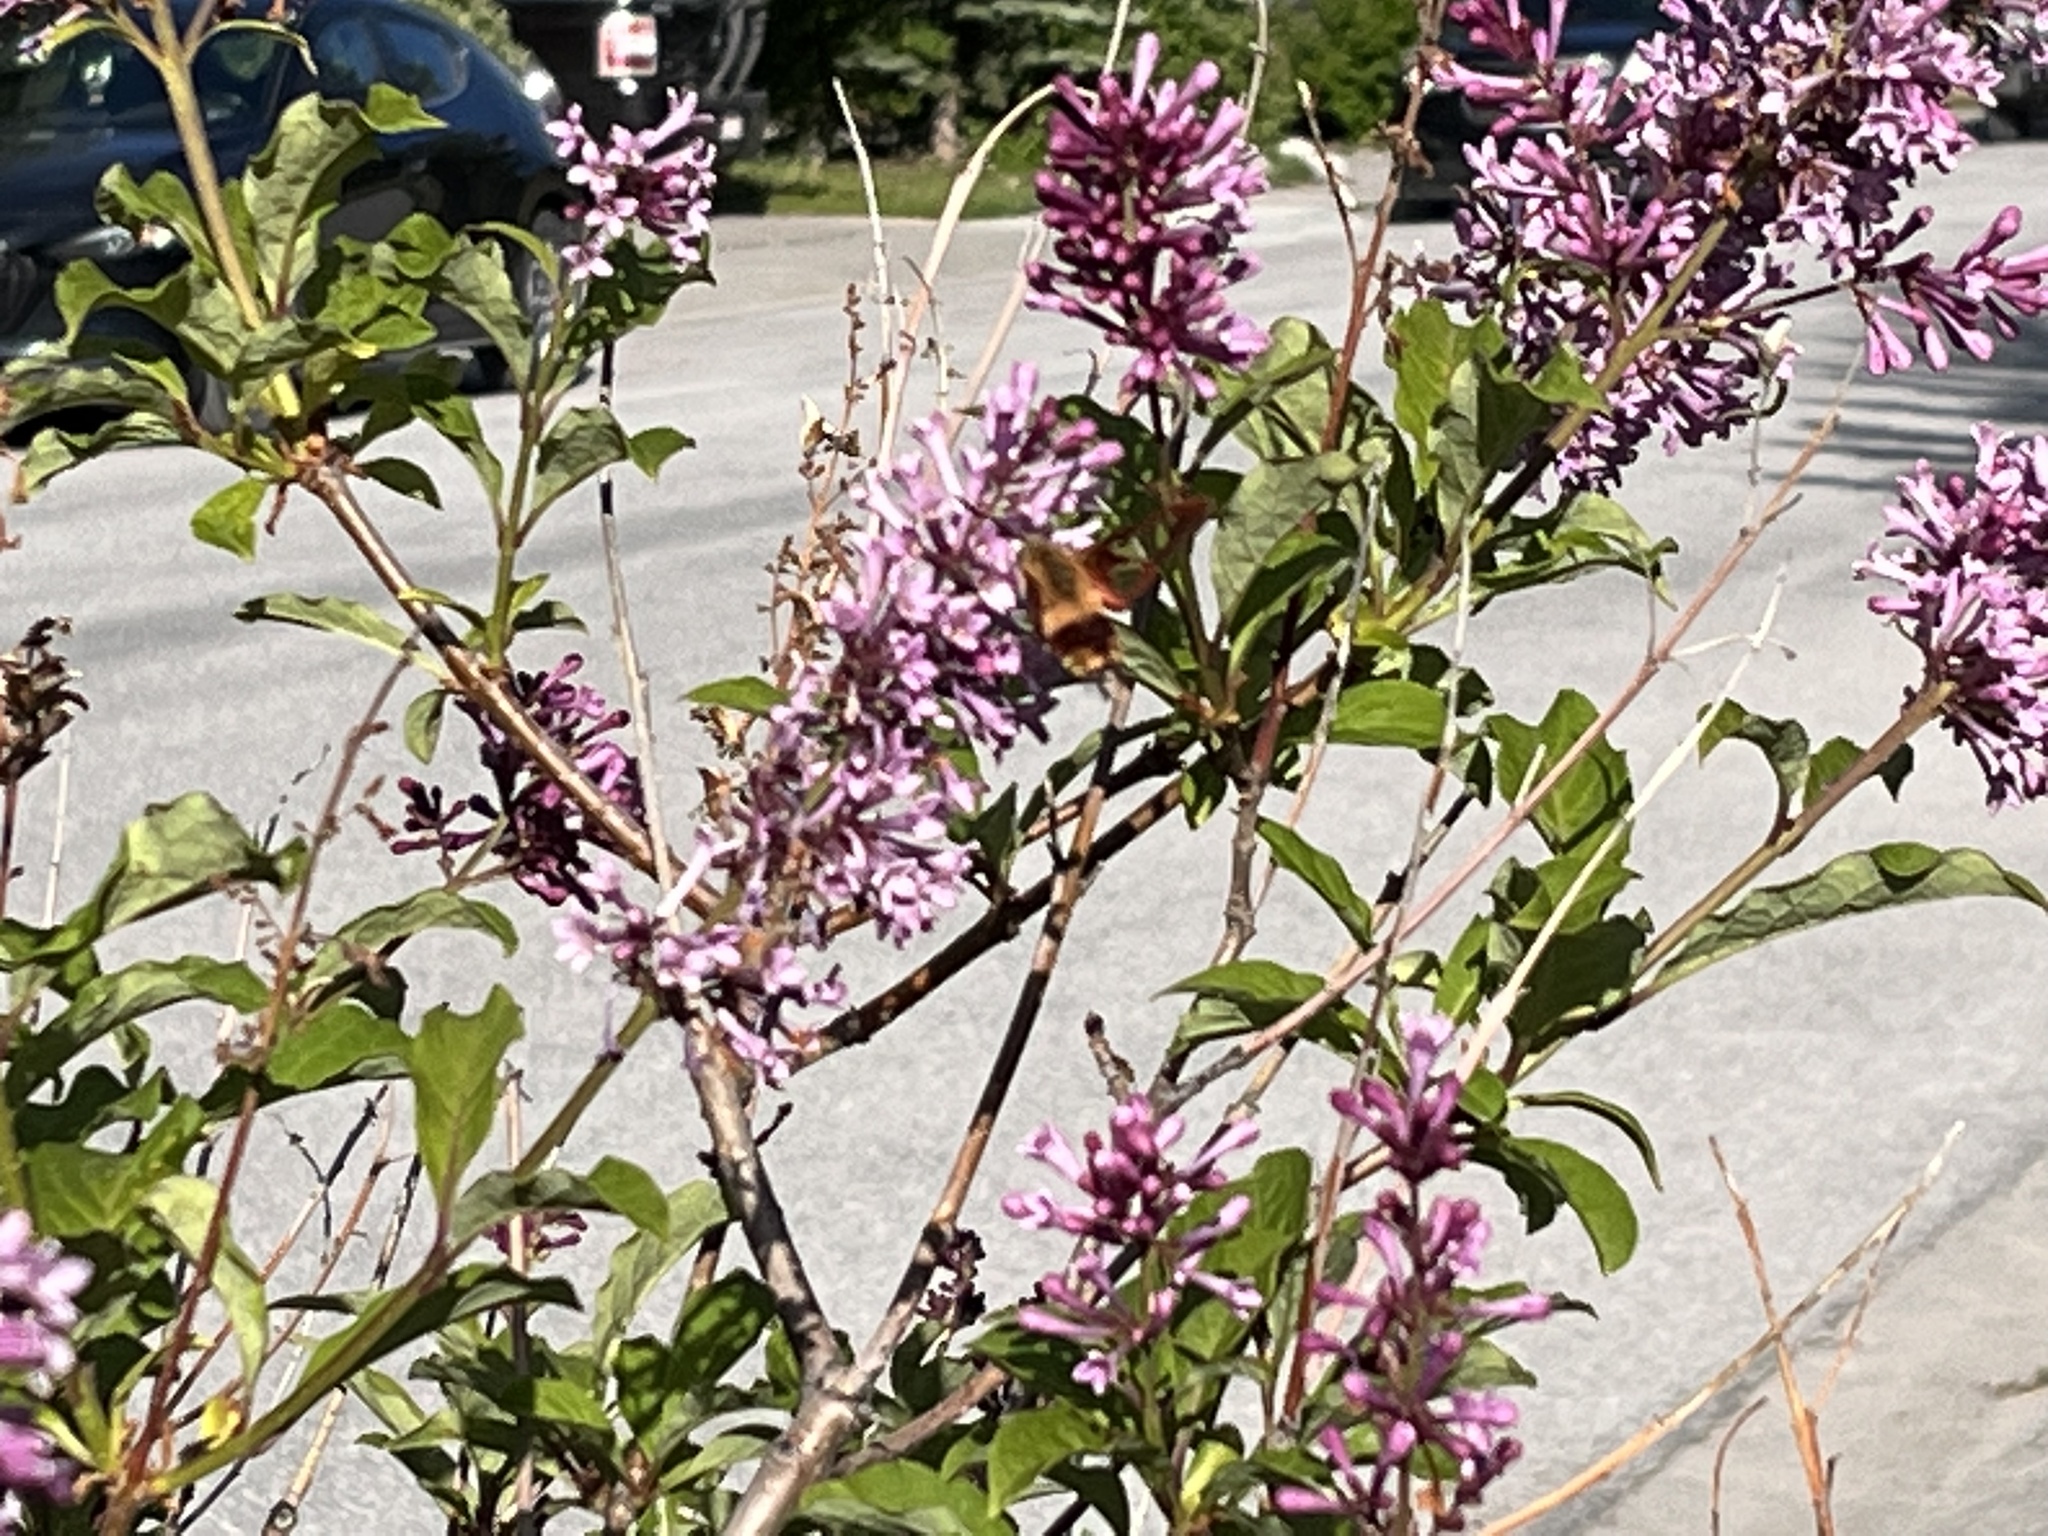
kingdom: Animalia
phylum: Arthropoda
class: Insecta
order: Lepidoptera
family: Sphingidae
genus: Hemaris
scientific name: Hemaris thysbe
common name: Common clear-wing
